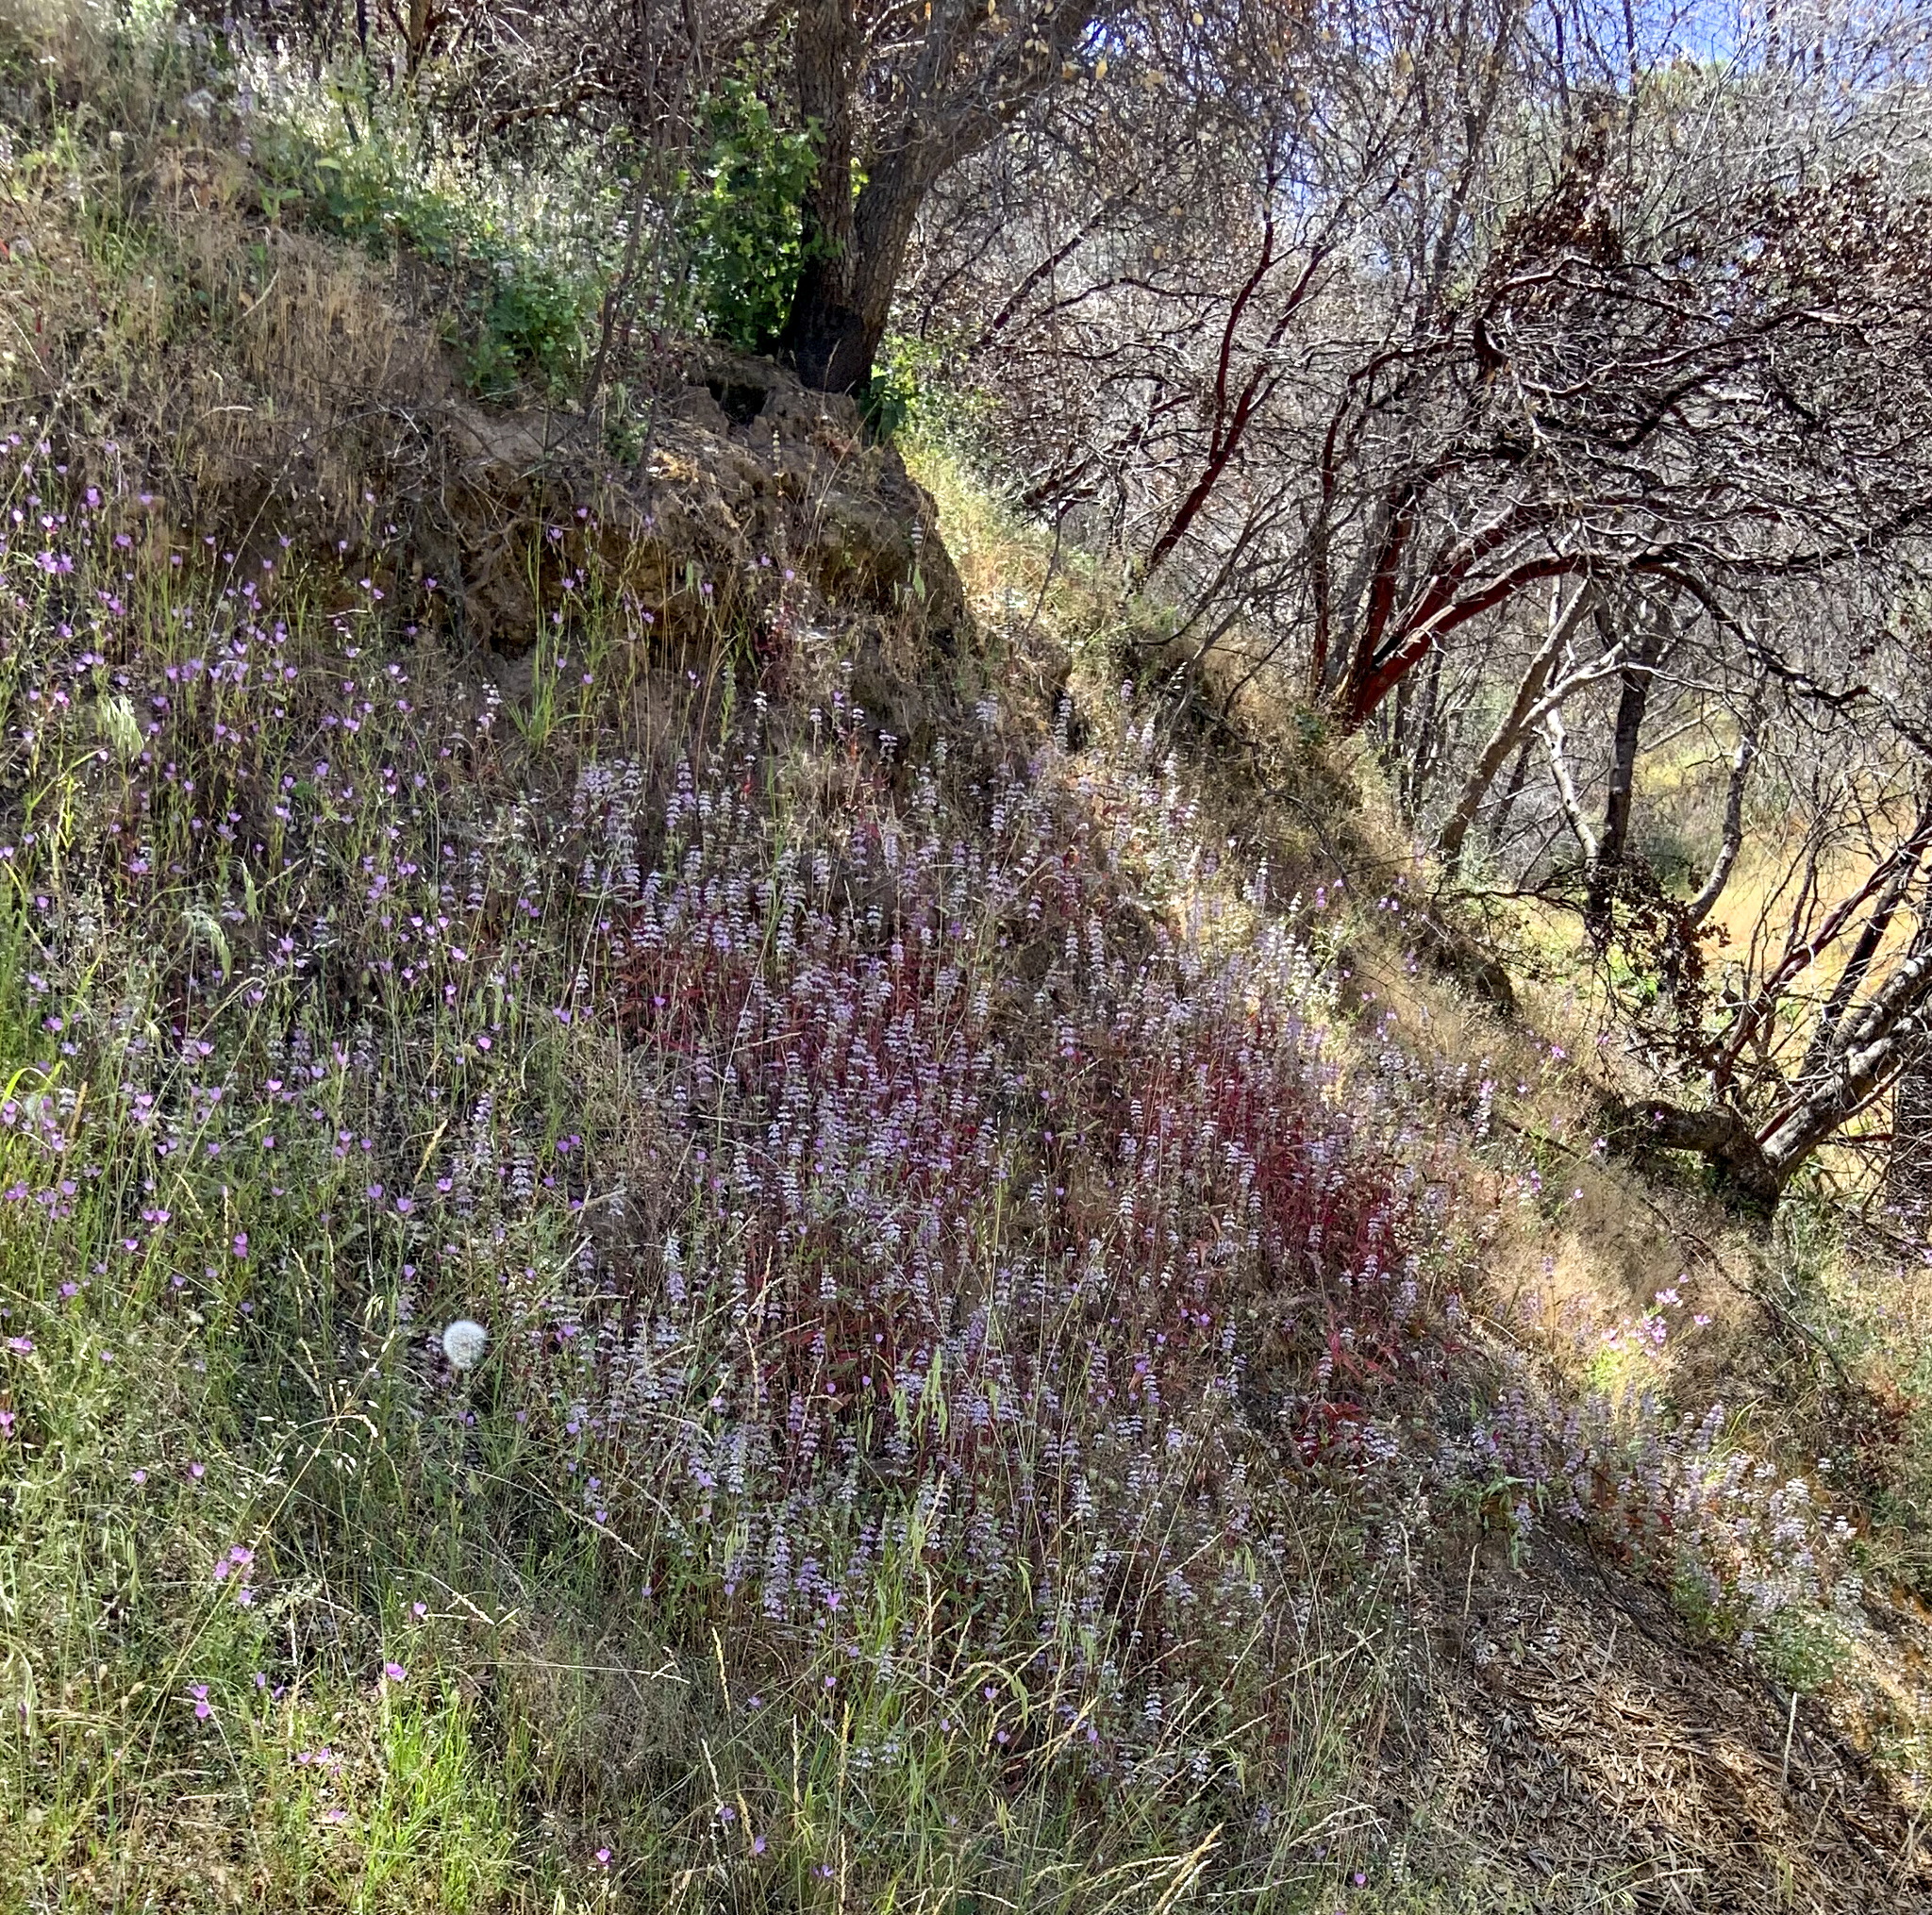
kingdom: Plantae
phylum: Tracheophyta
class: Magnoliopsida
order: Lamiales
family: Plantaginaceae
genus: Collinsia
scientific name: Collinsia tinctoria
